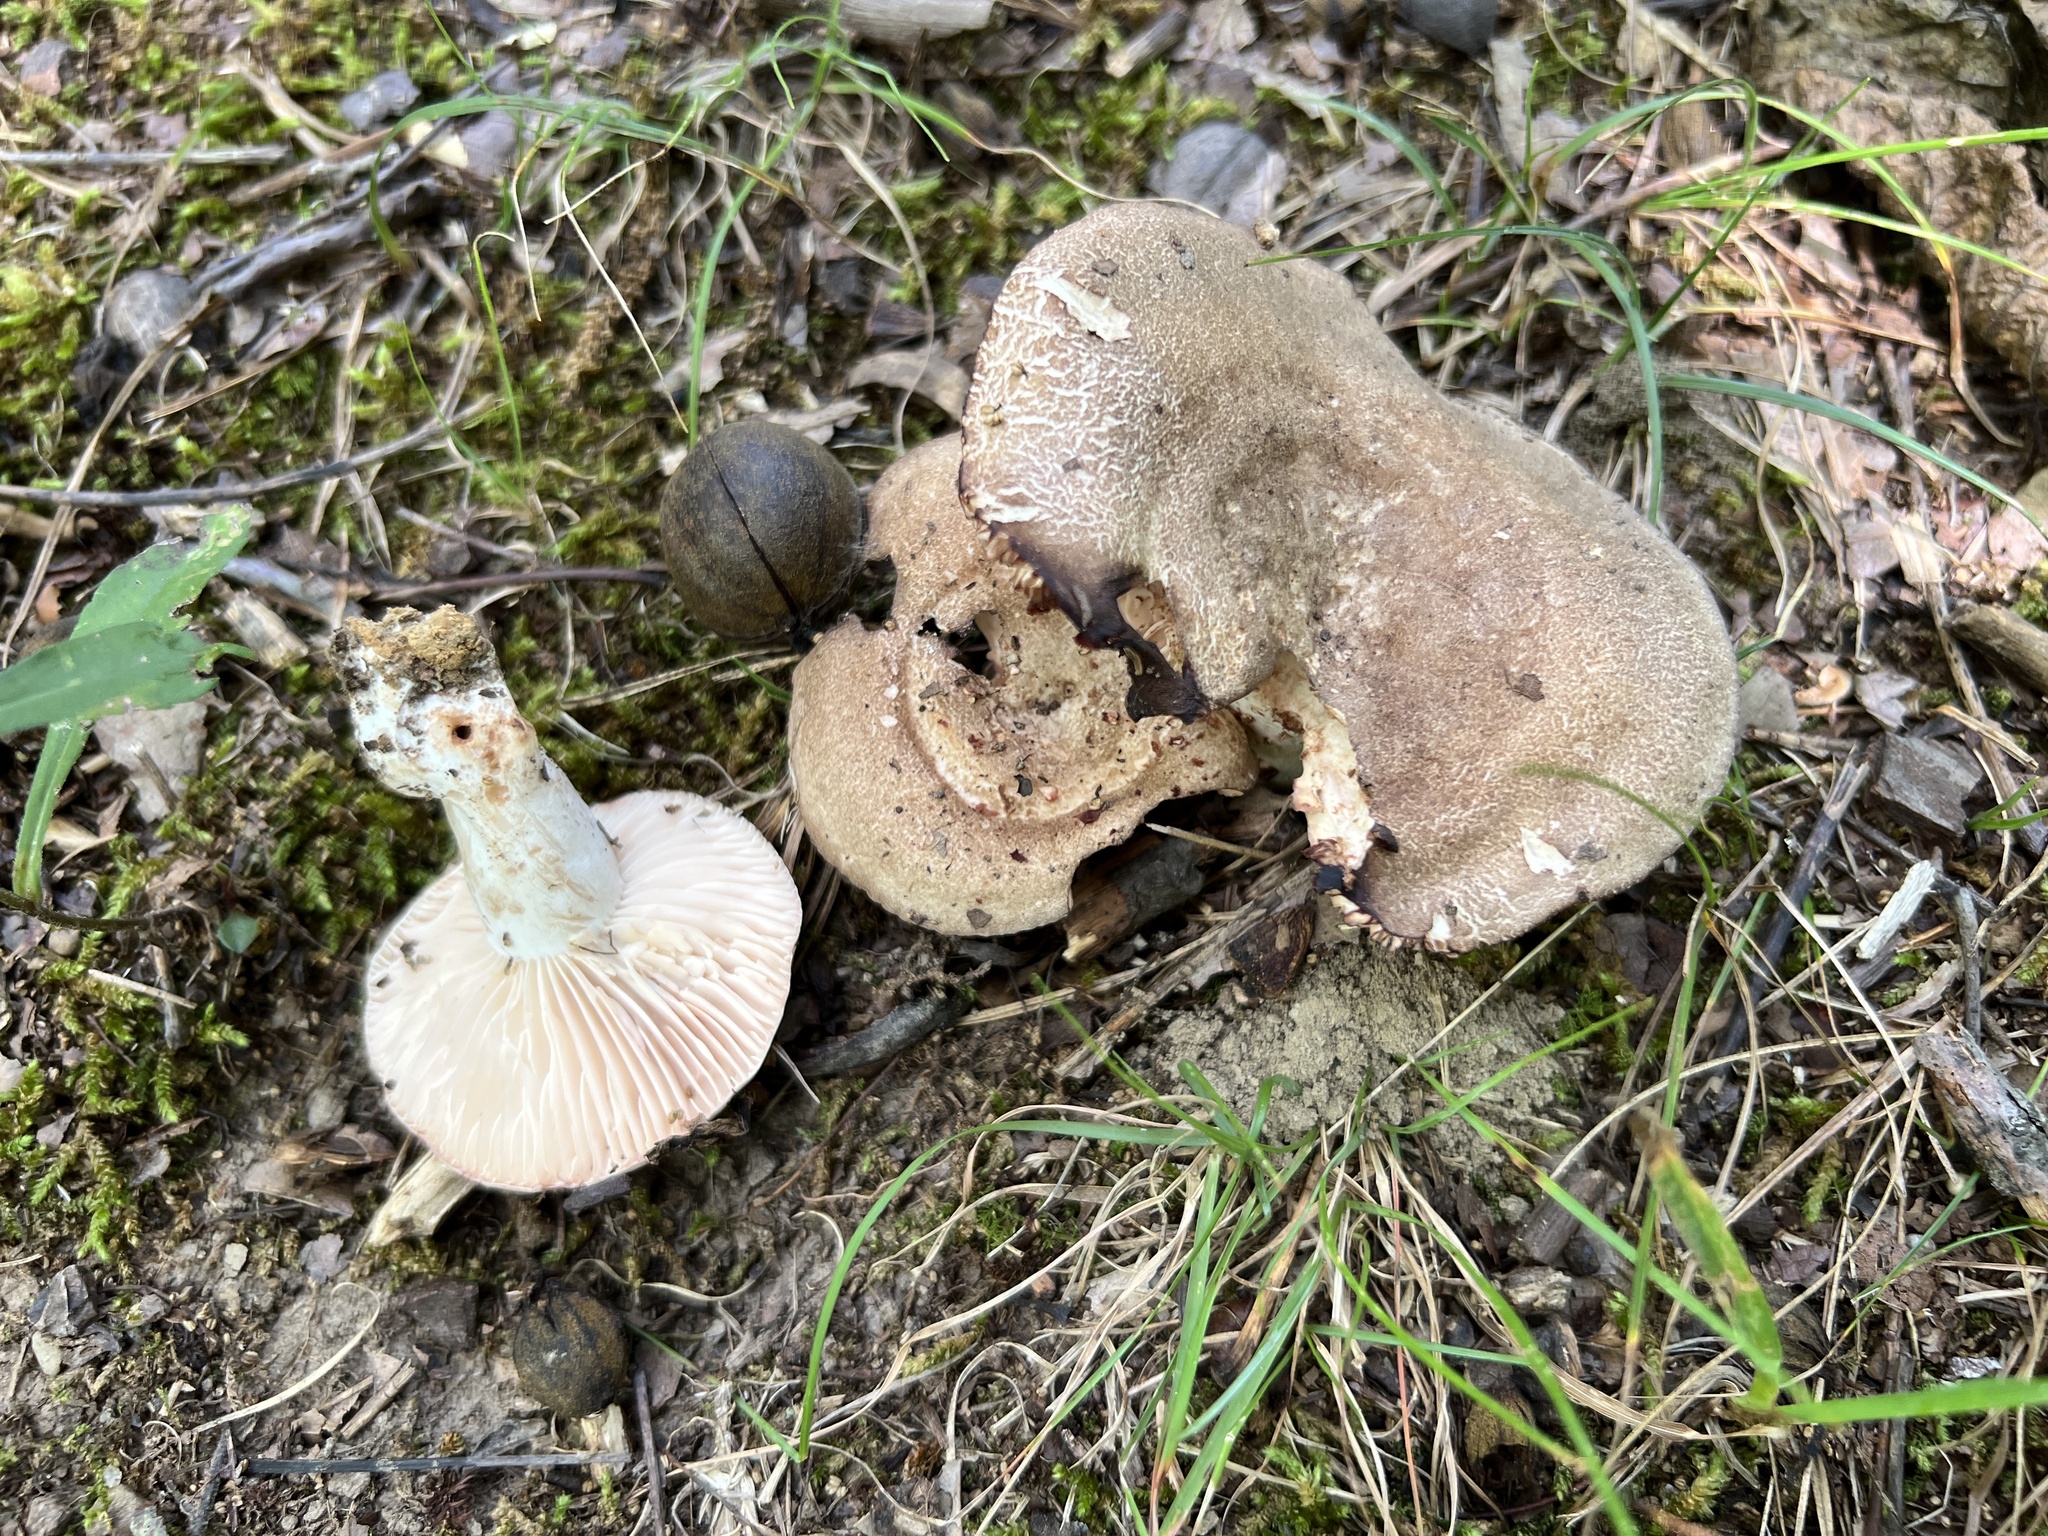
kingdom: Fungi
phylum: Basidiomycota
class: Agaricomycetes
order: Russulales
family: Russulaceae
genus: Russula
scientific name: Russula adusta
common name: Winecork brittlegill
